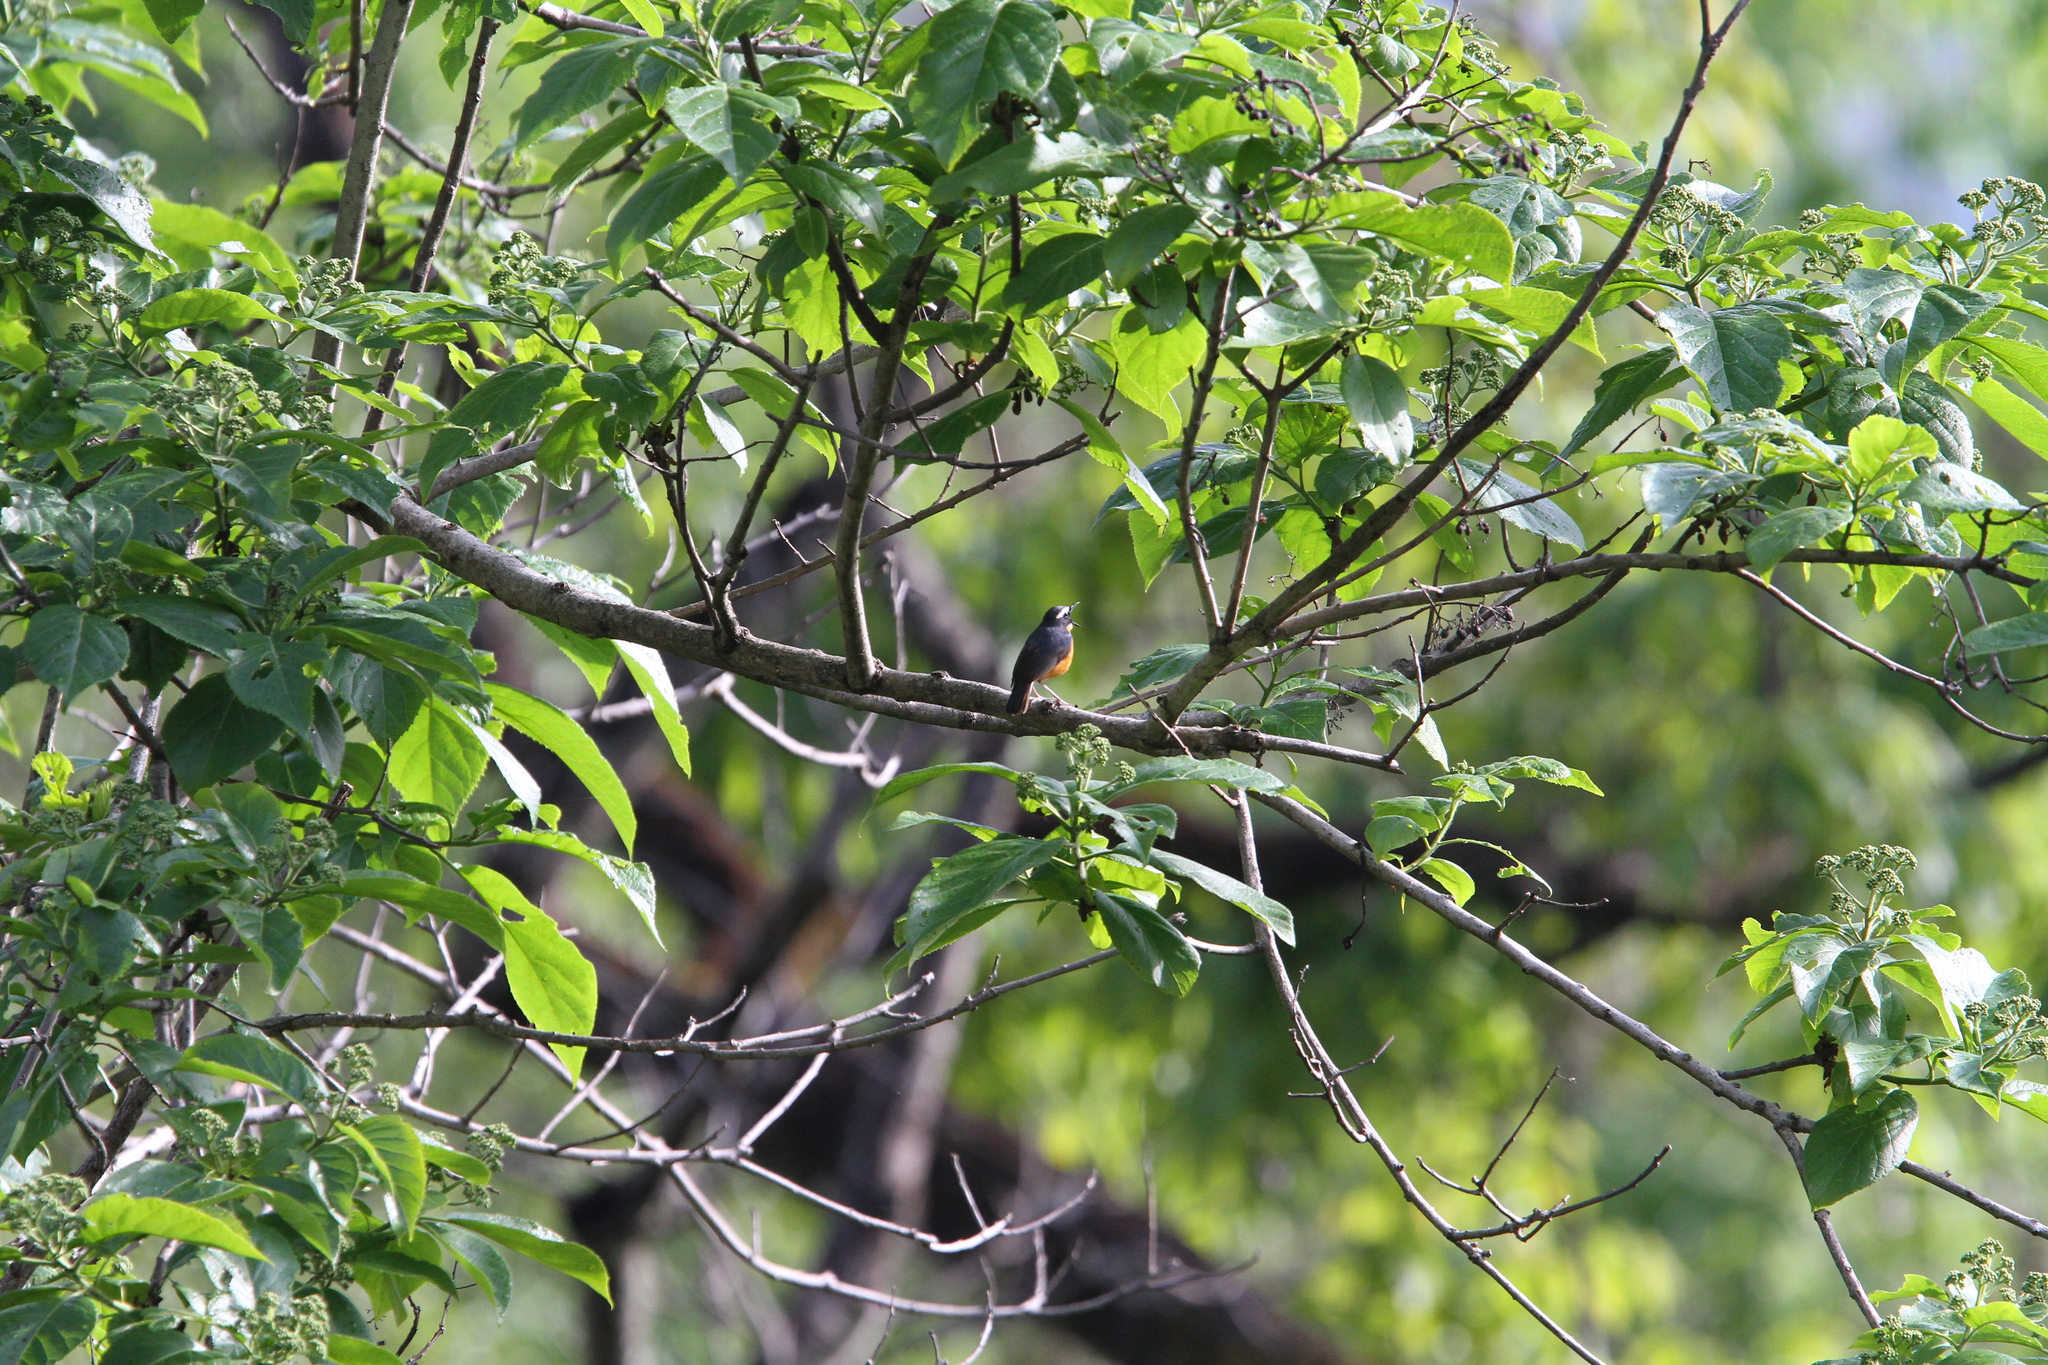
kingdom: Animalia
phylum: Chordata
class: Aves
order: Passeriformes
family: Muscicapidae
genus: Luscinia
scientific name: Luscinia brunnea
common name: Indian blue robin
